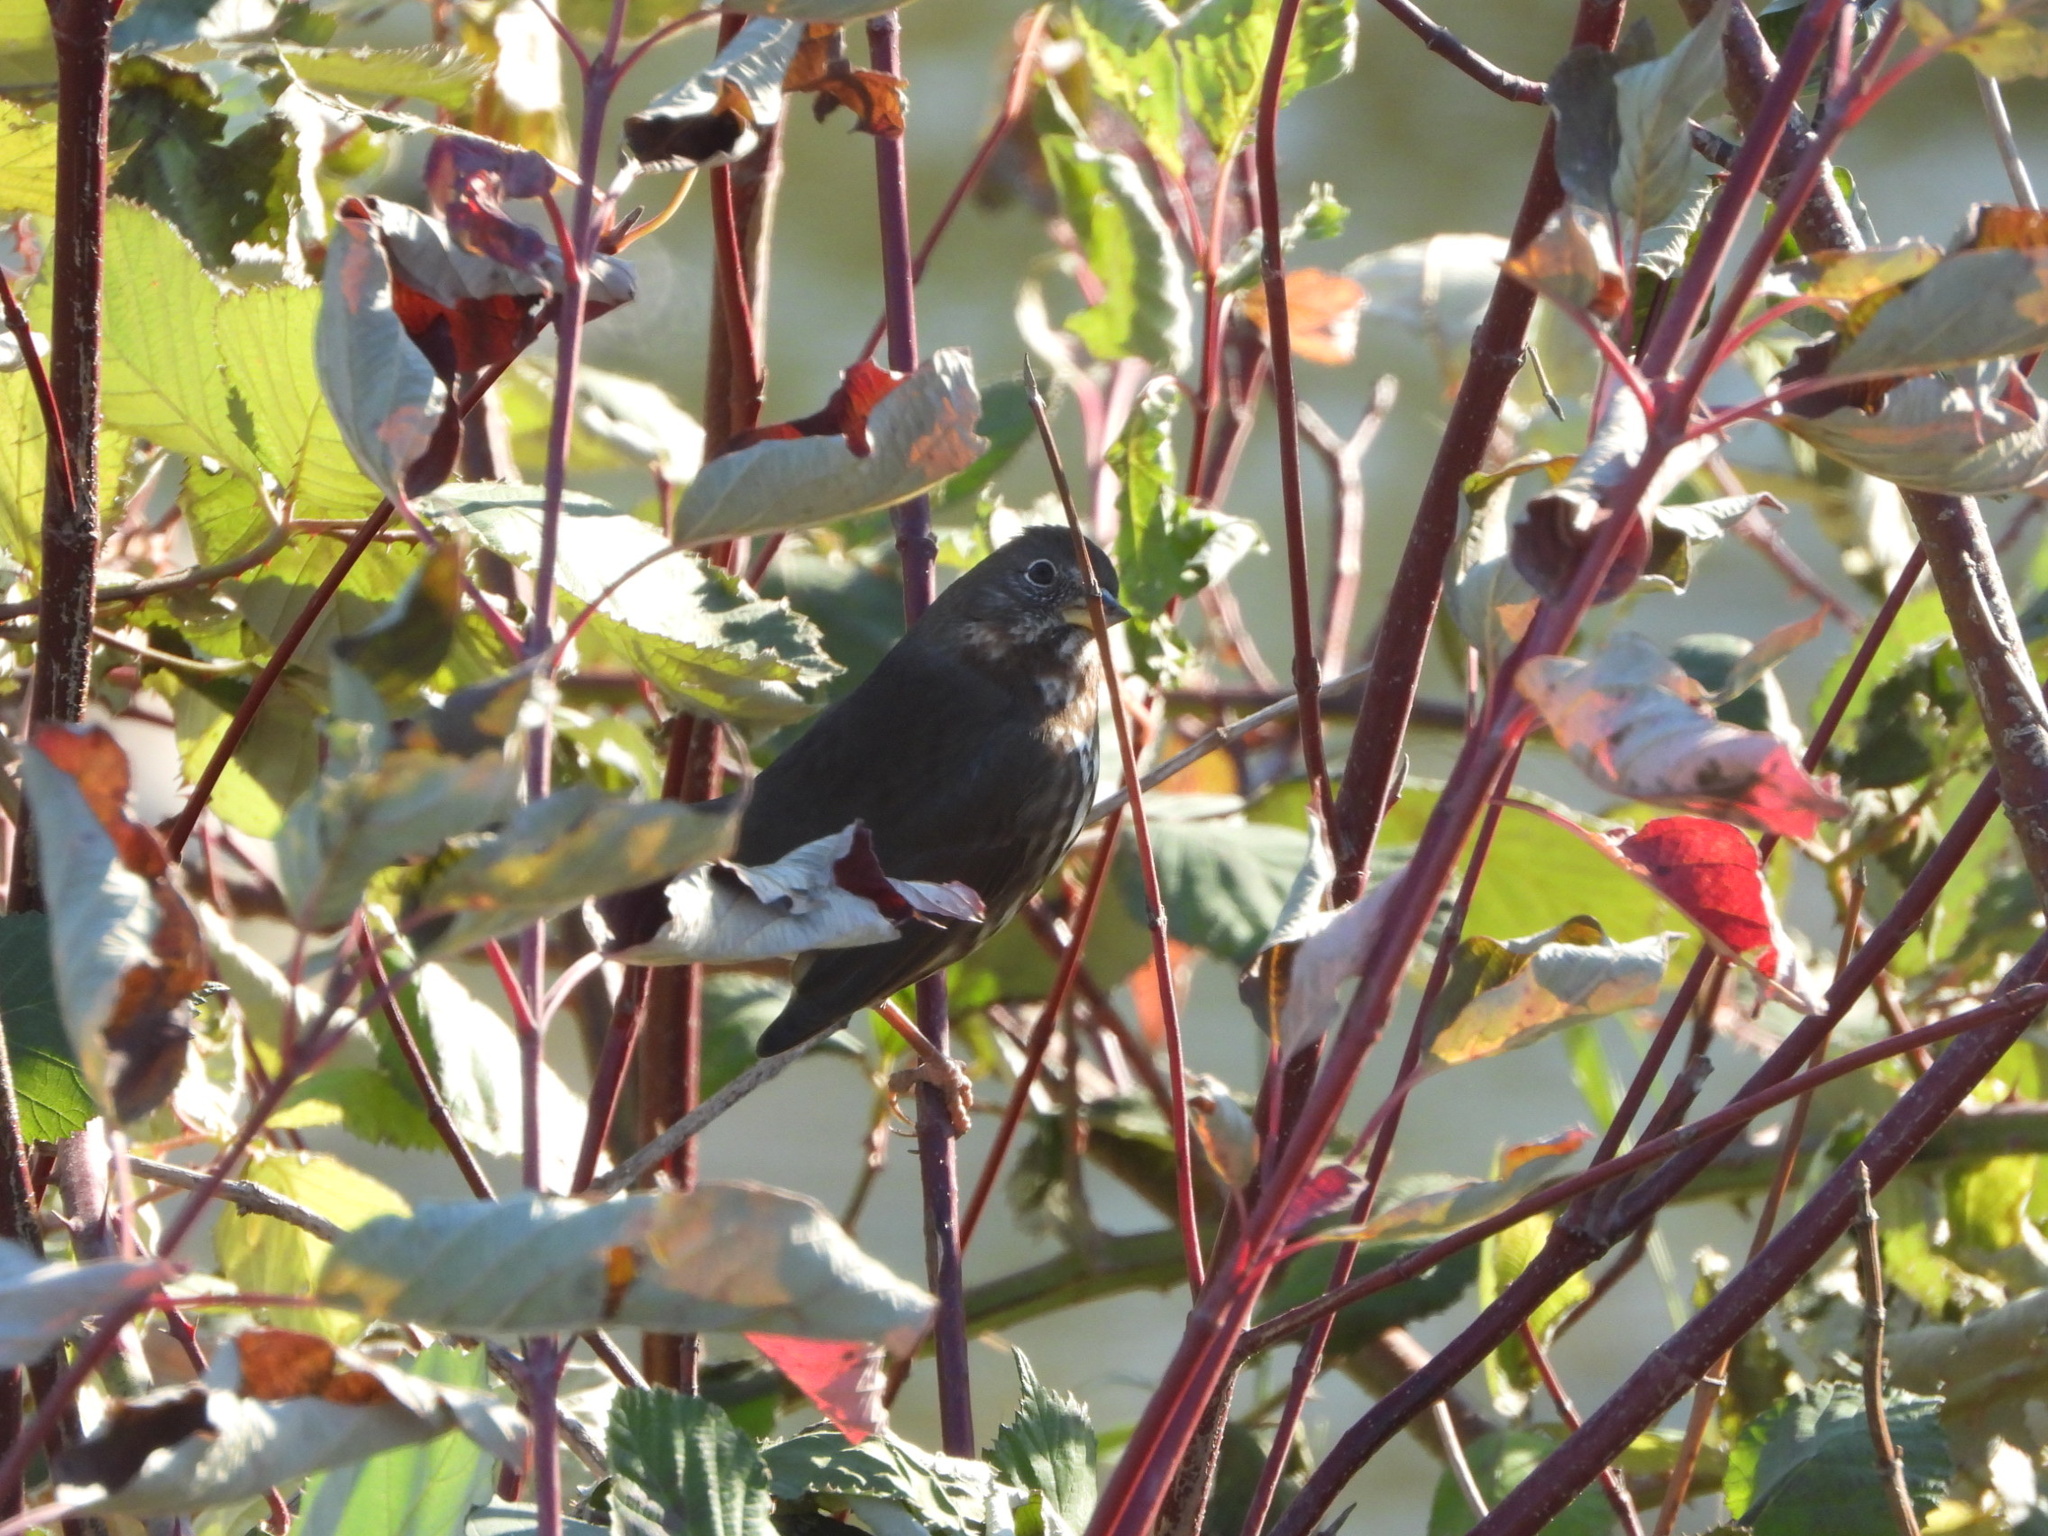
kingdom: Animalia
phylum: Chordata
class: Aves
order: Passeriformes
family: Passerellidae
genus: Passerella
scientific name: Passerella iliaca
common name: Fox sparrow
